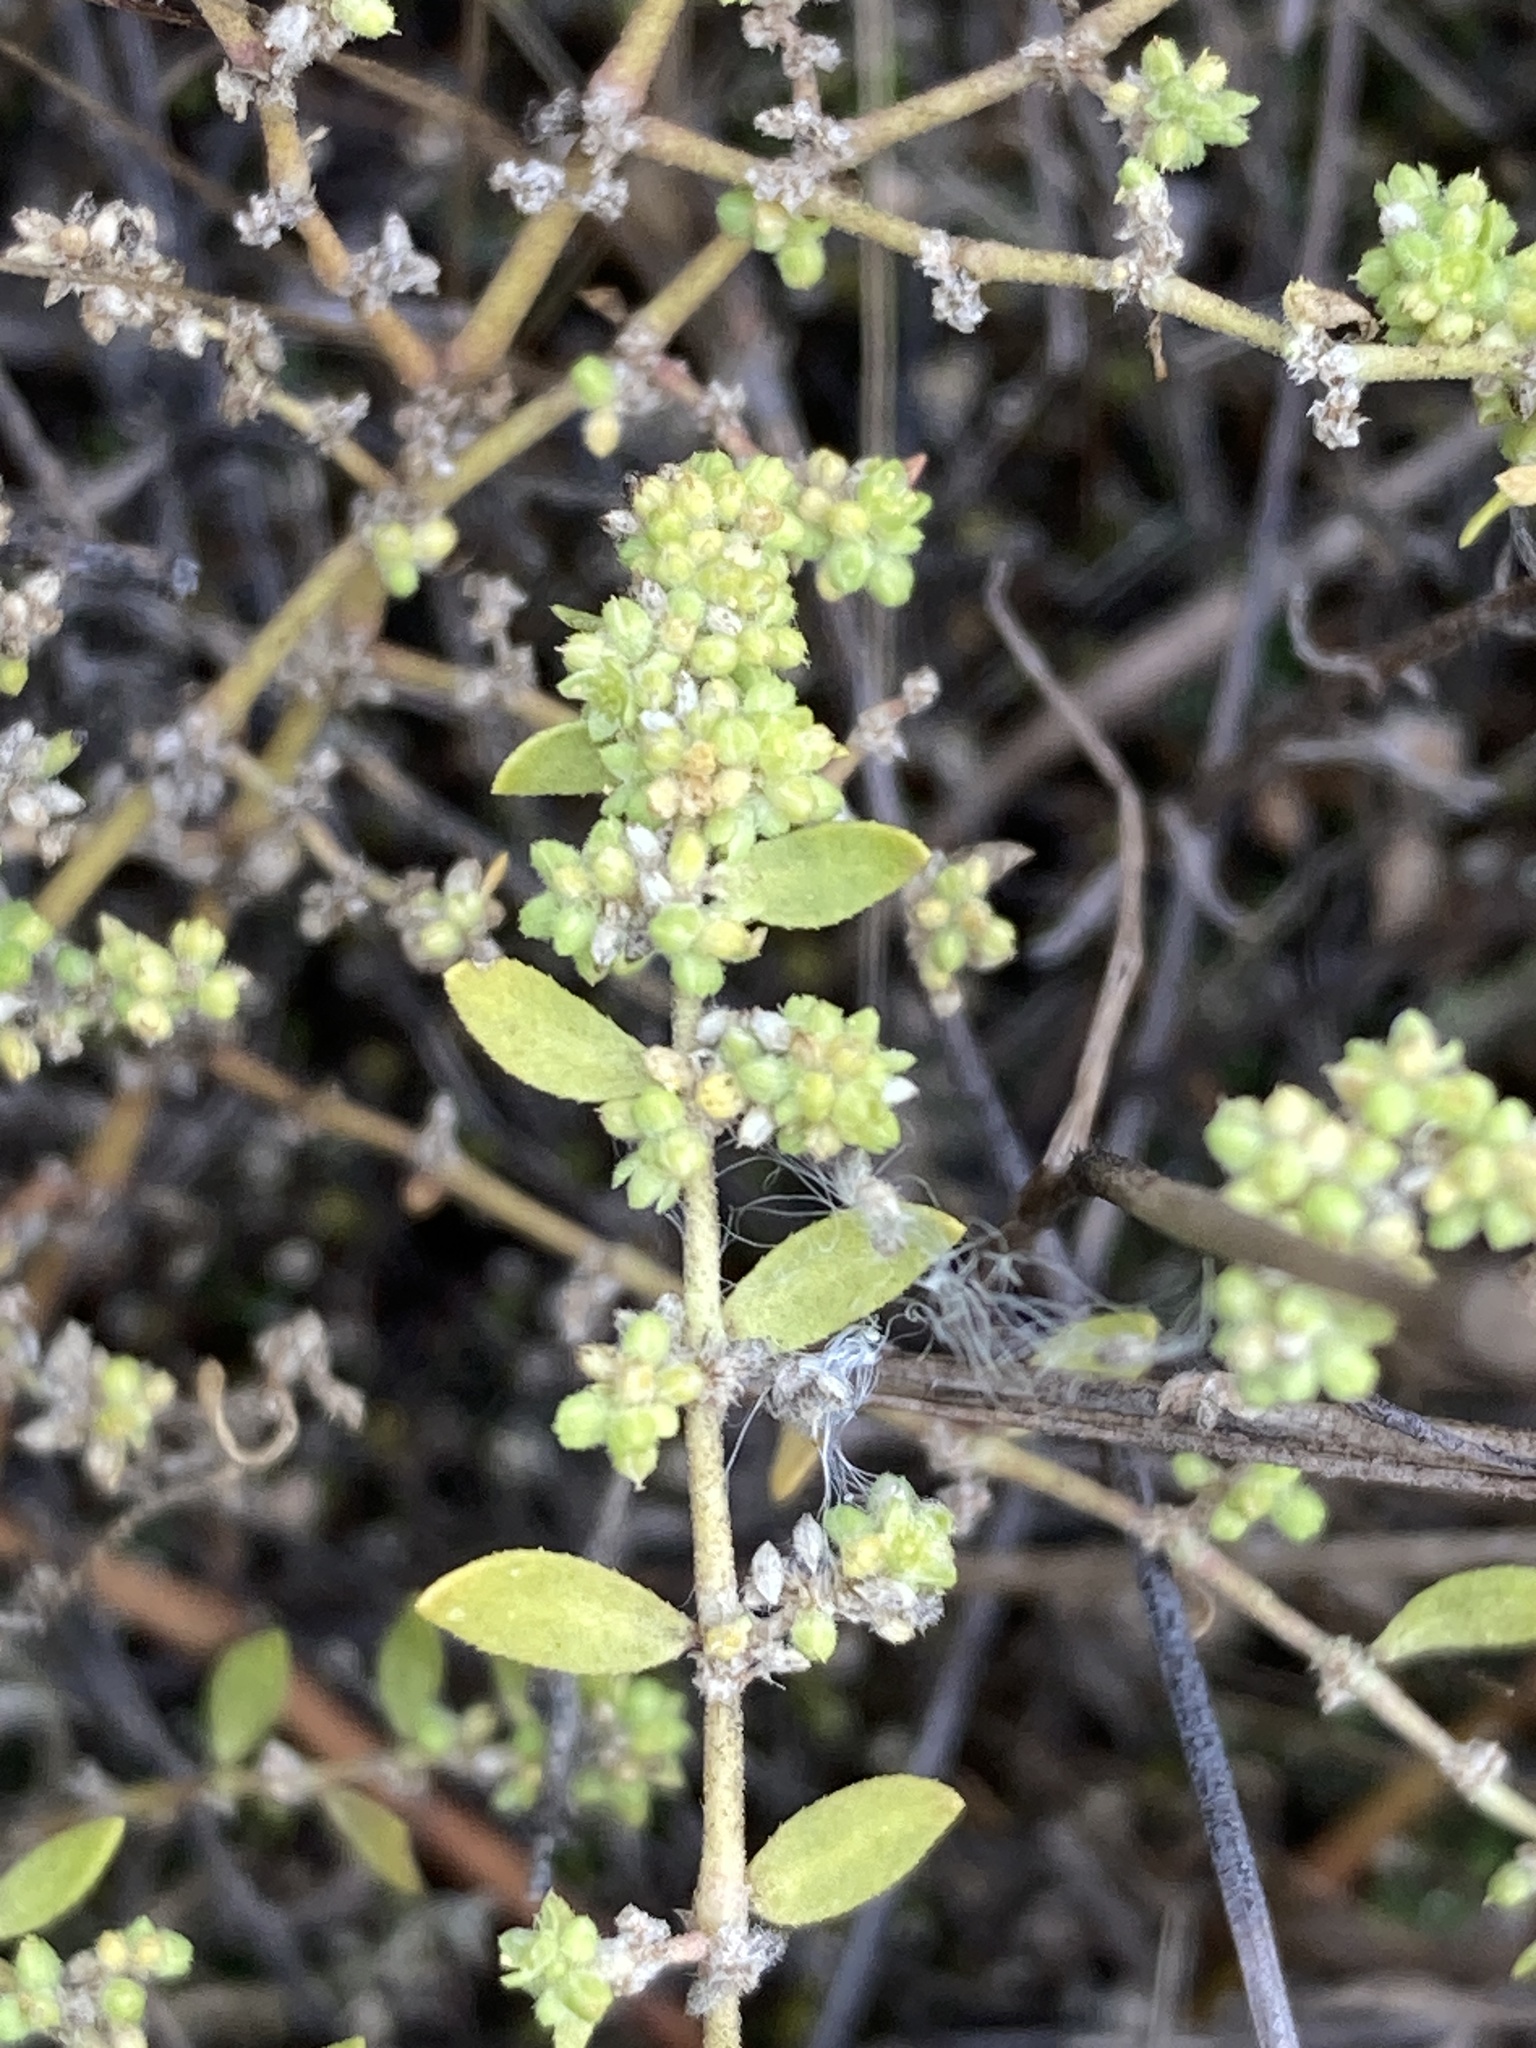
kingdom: Plantae
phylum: Tracheophyta
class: Magnoliopsida
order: Caryophyllales
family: Caryophyllaceae
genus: Herniaria
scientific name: Herniaria polygama
